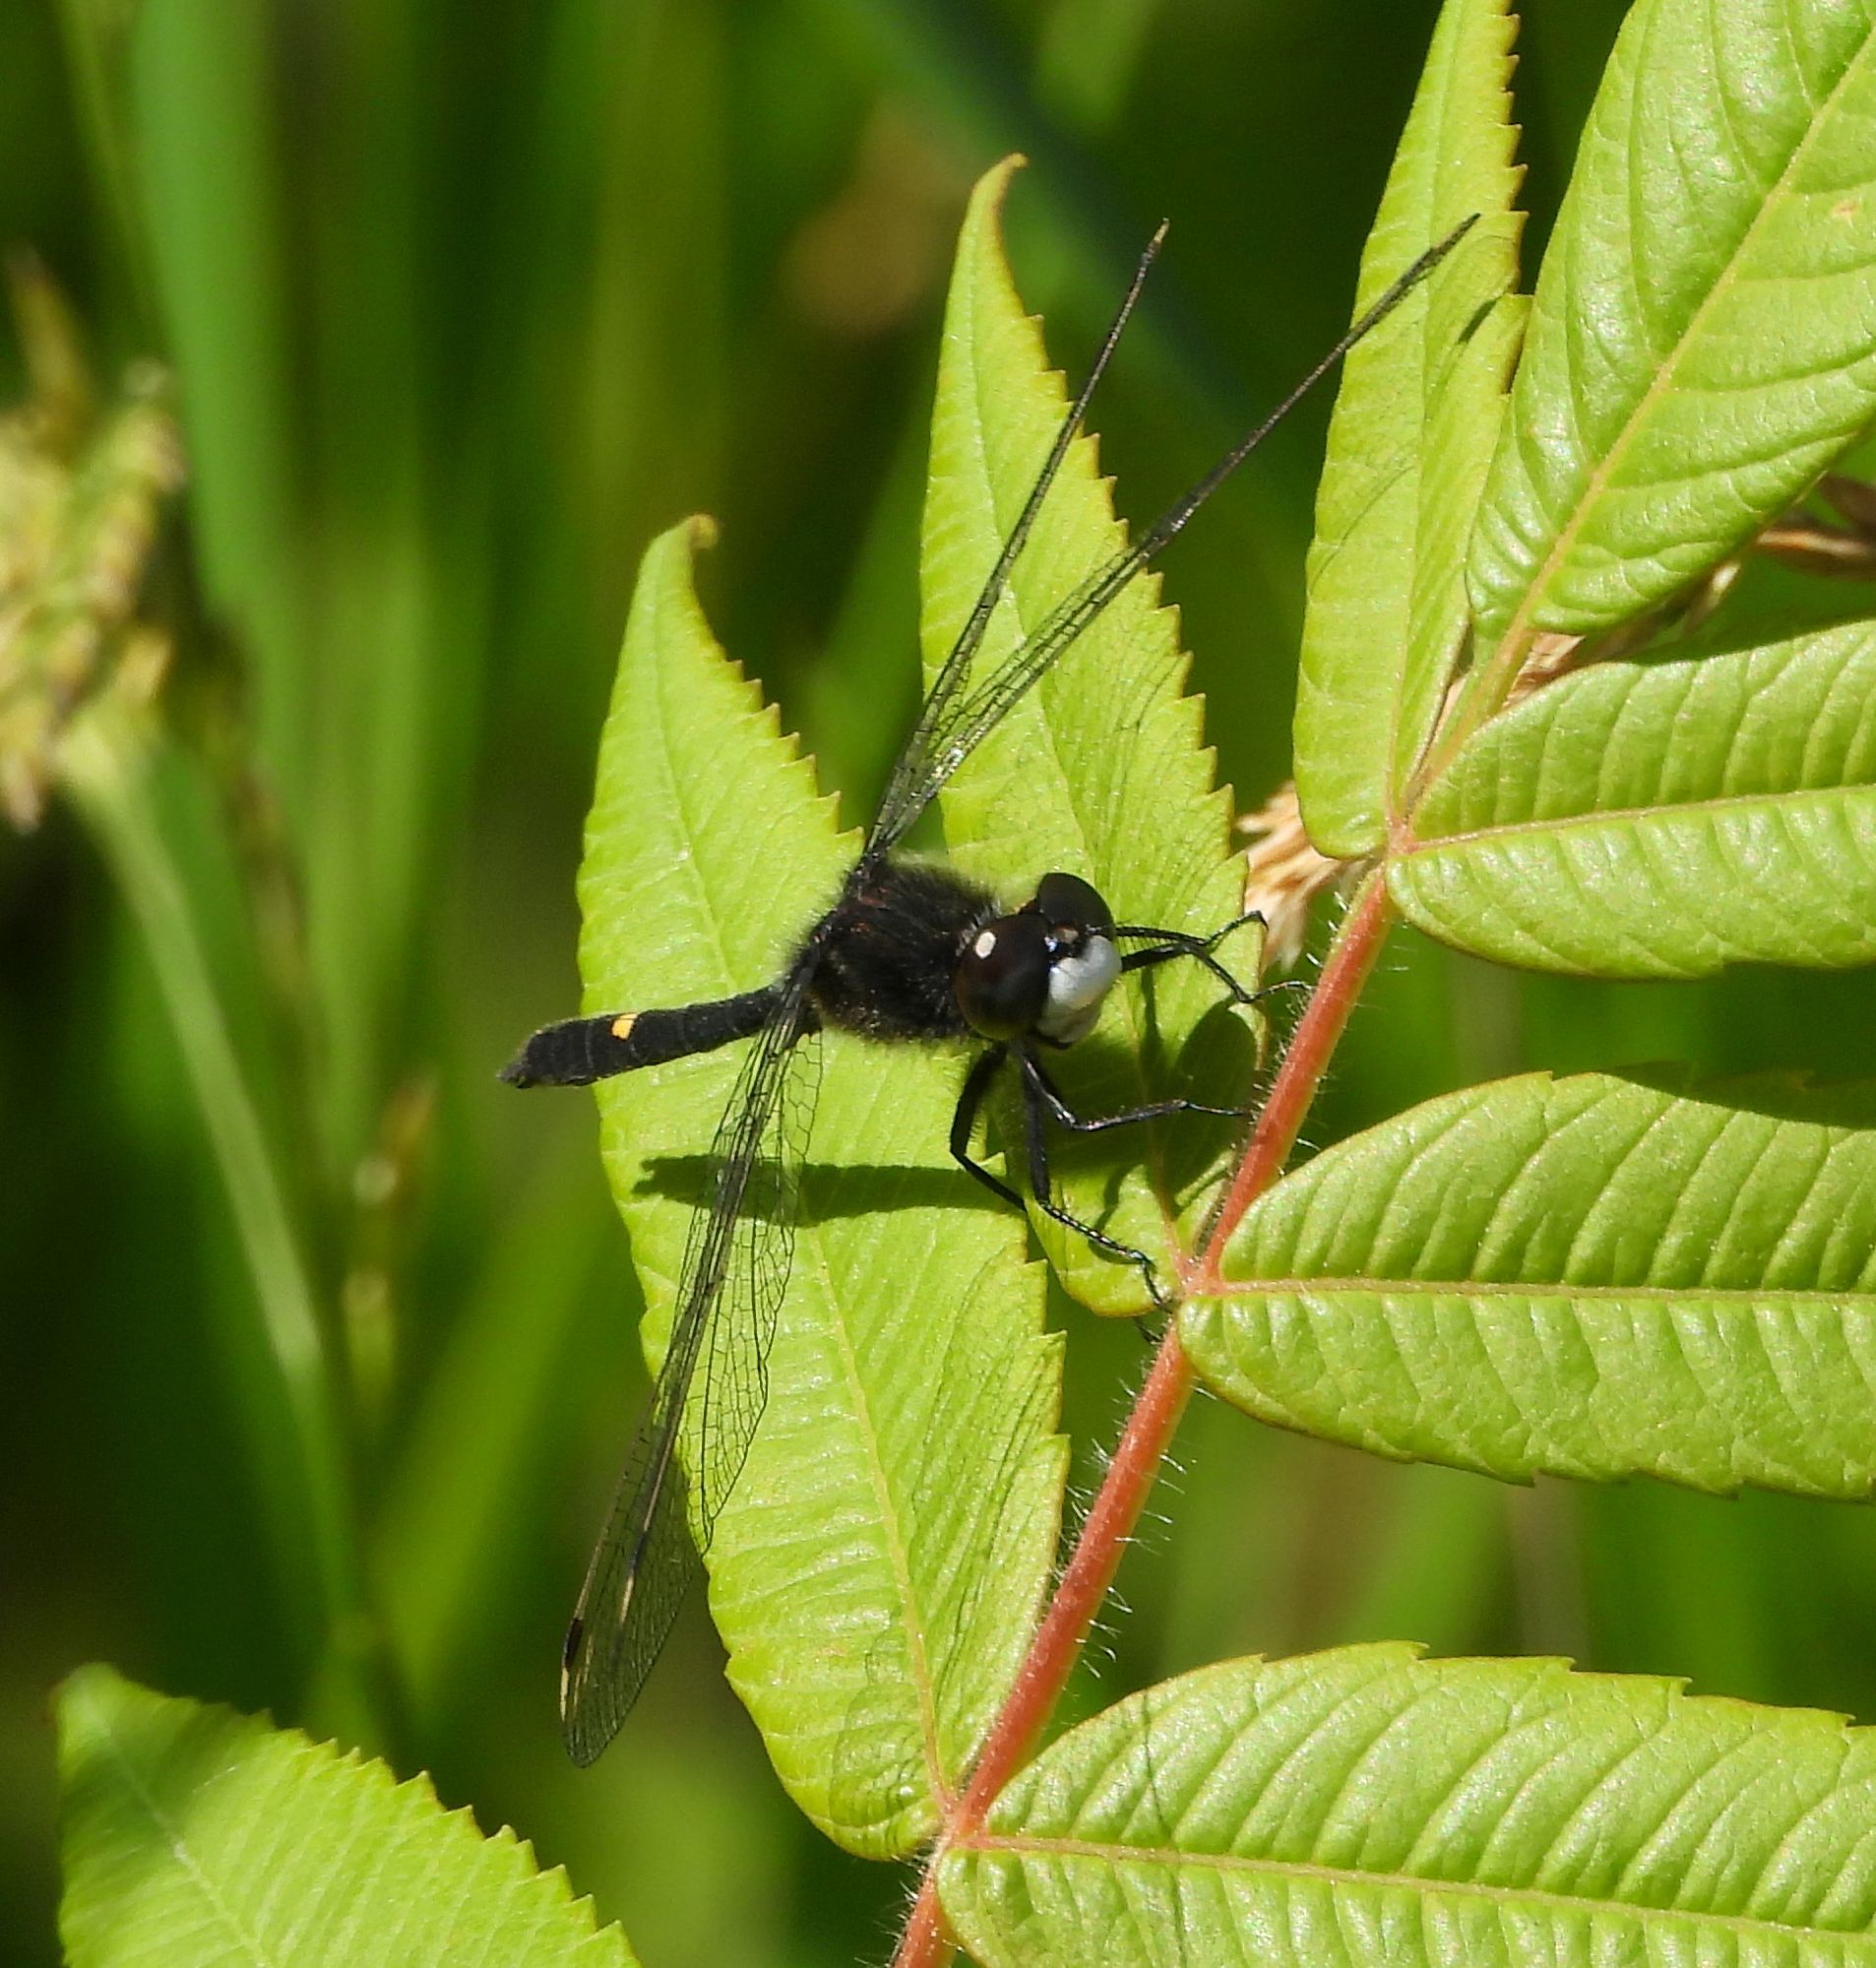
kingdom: Animalia
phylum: Arthropoda
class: Insecta
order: Odonata
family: Libellulidae
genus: Leucorrhinia
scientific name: Leucorrhinia intacta
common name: Dot-tailed whiteface
